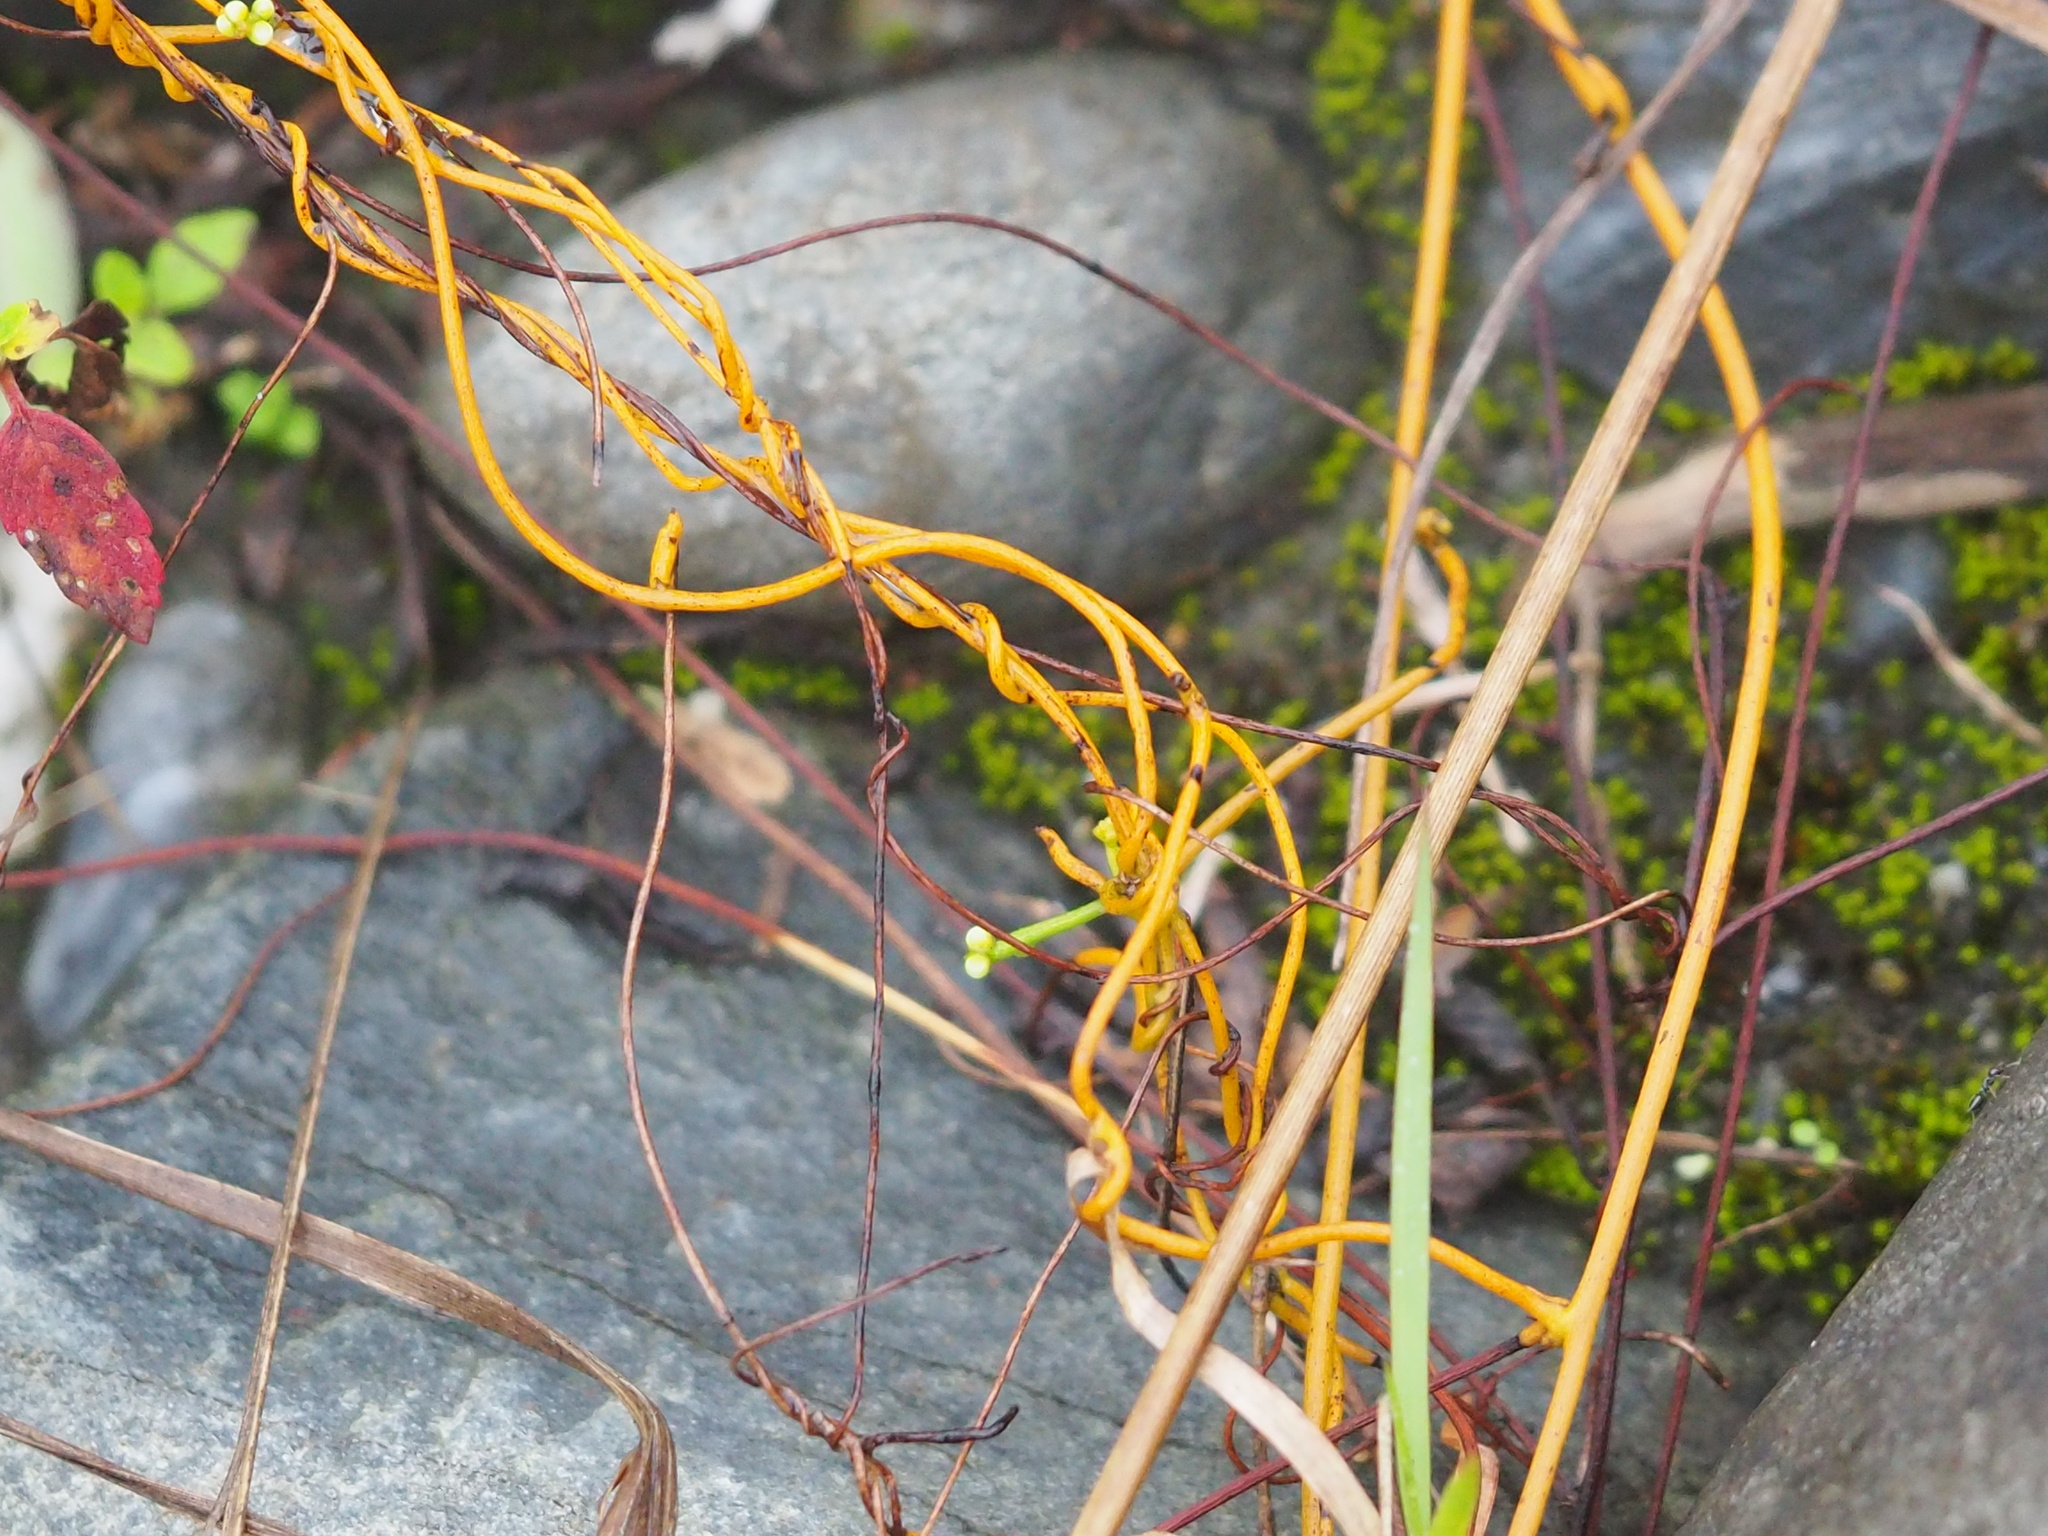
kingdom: Plantae
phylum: Tracheophyta
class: Magnoliopsida
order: Laurales
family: Lauraceae
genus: Cassytha
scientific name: Cassytha filiformis
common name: Dodder-laurel
